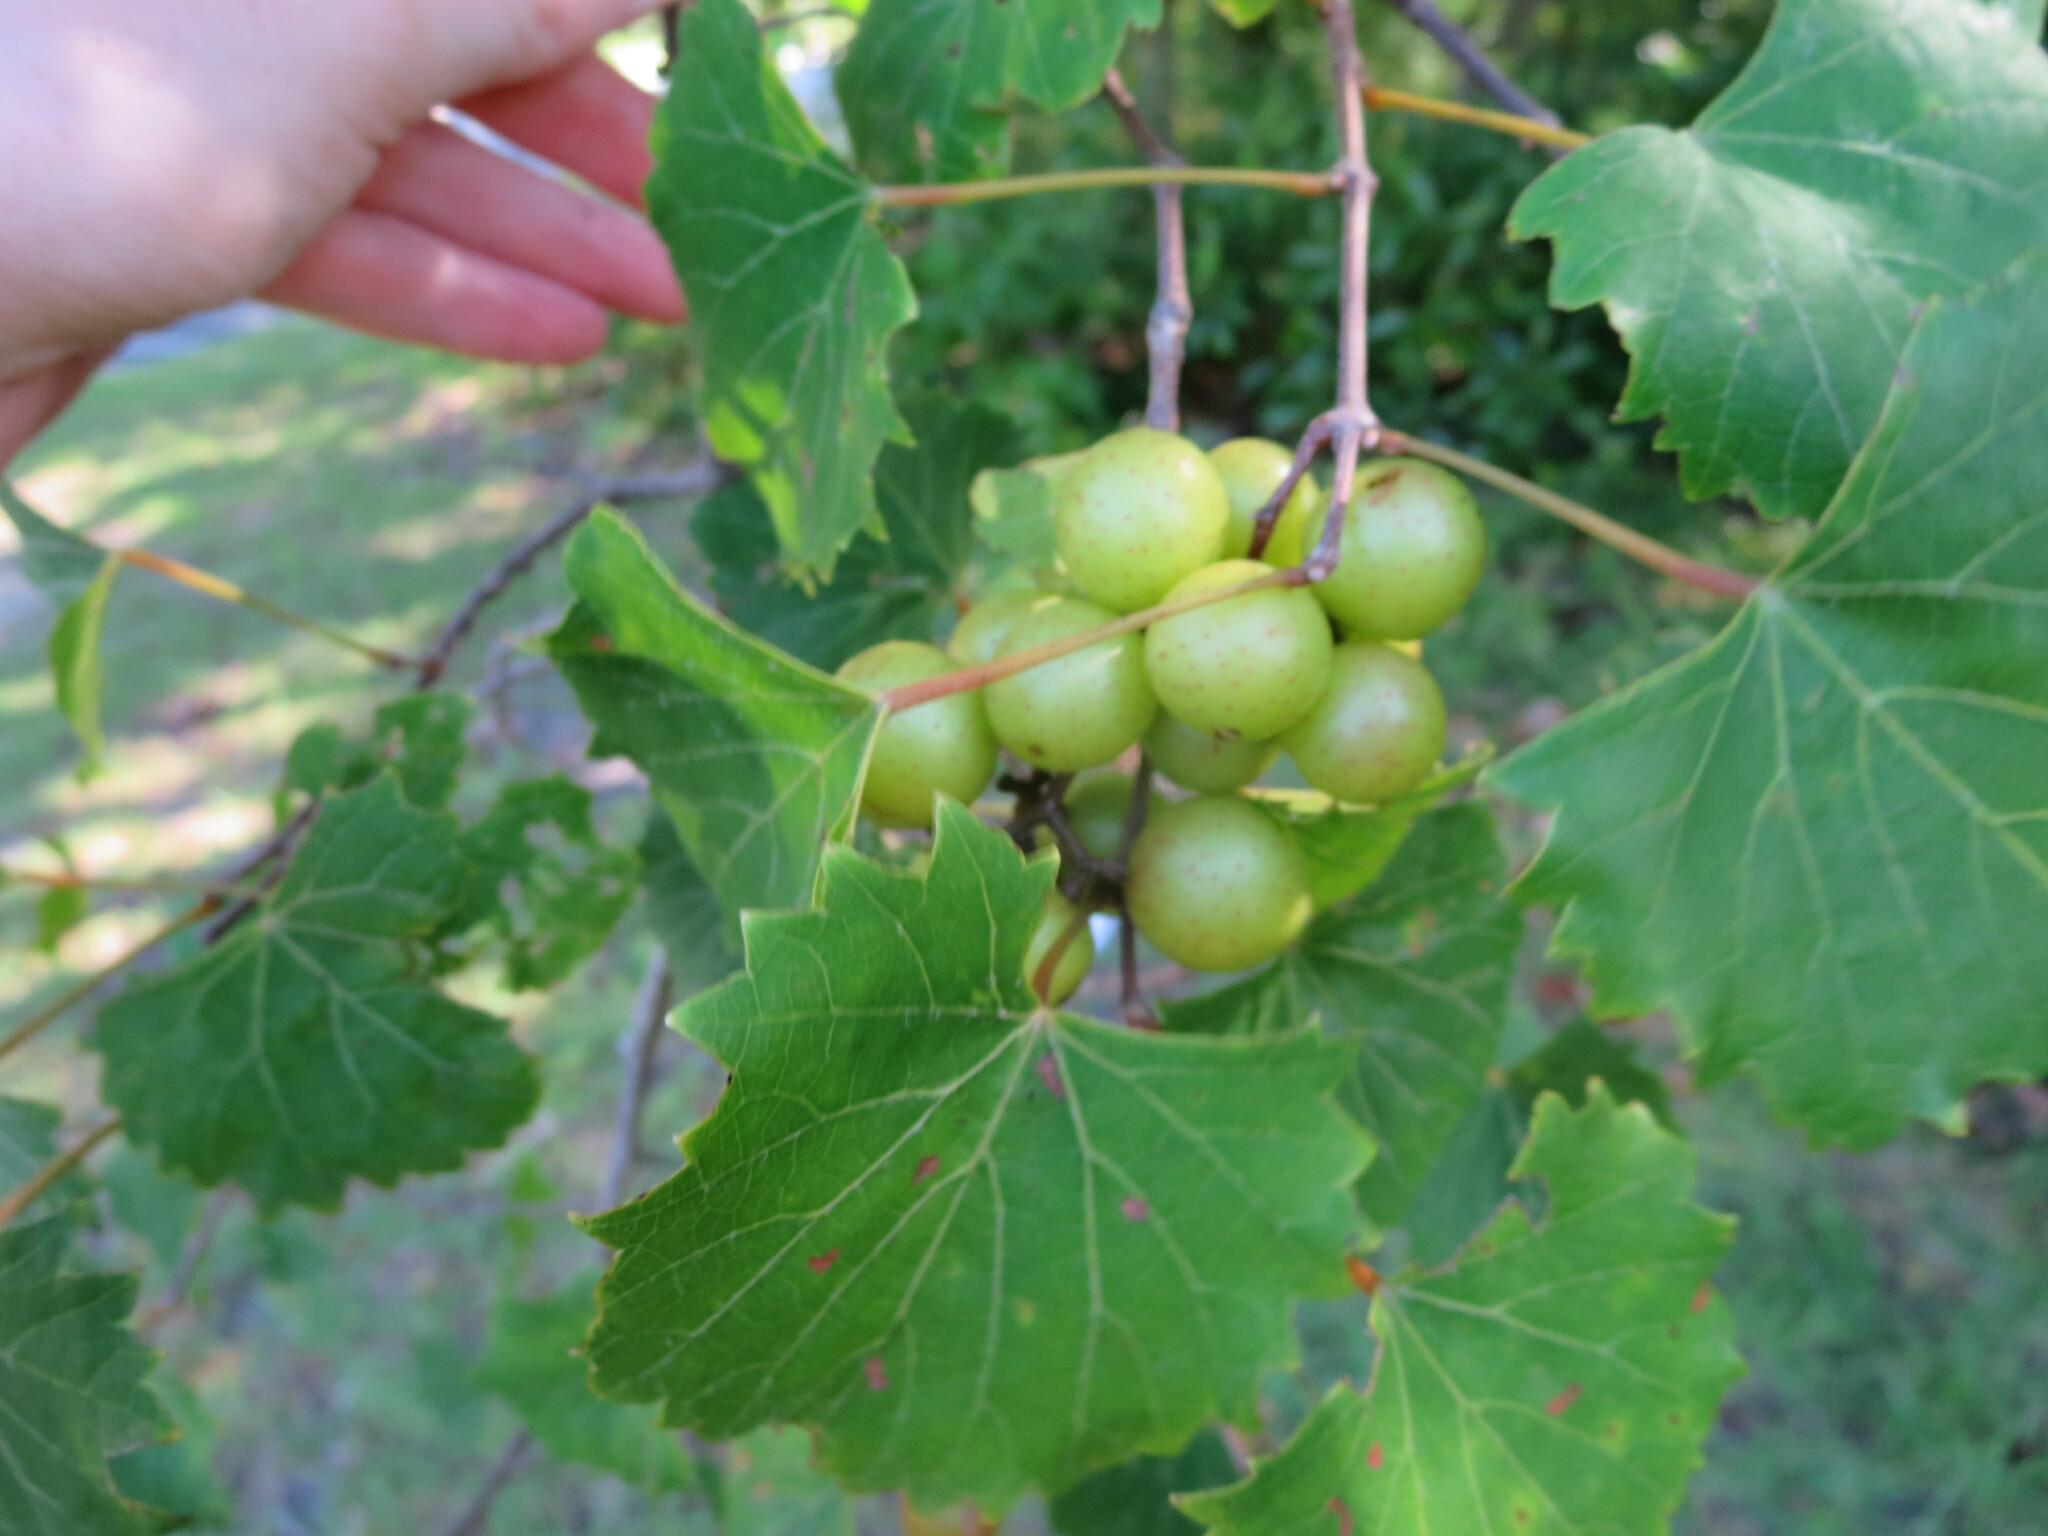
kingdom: Plantae
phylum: Tracheophyta
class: Magnoliopsida
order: Vitales
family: Vitaceae
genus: Vitis
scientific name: Vitis rotundifolia
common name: Muscadine grape
